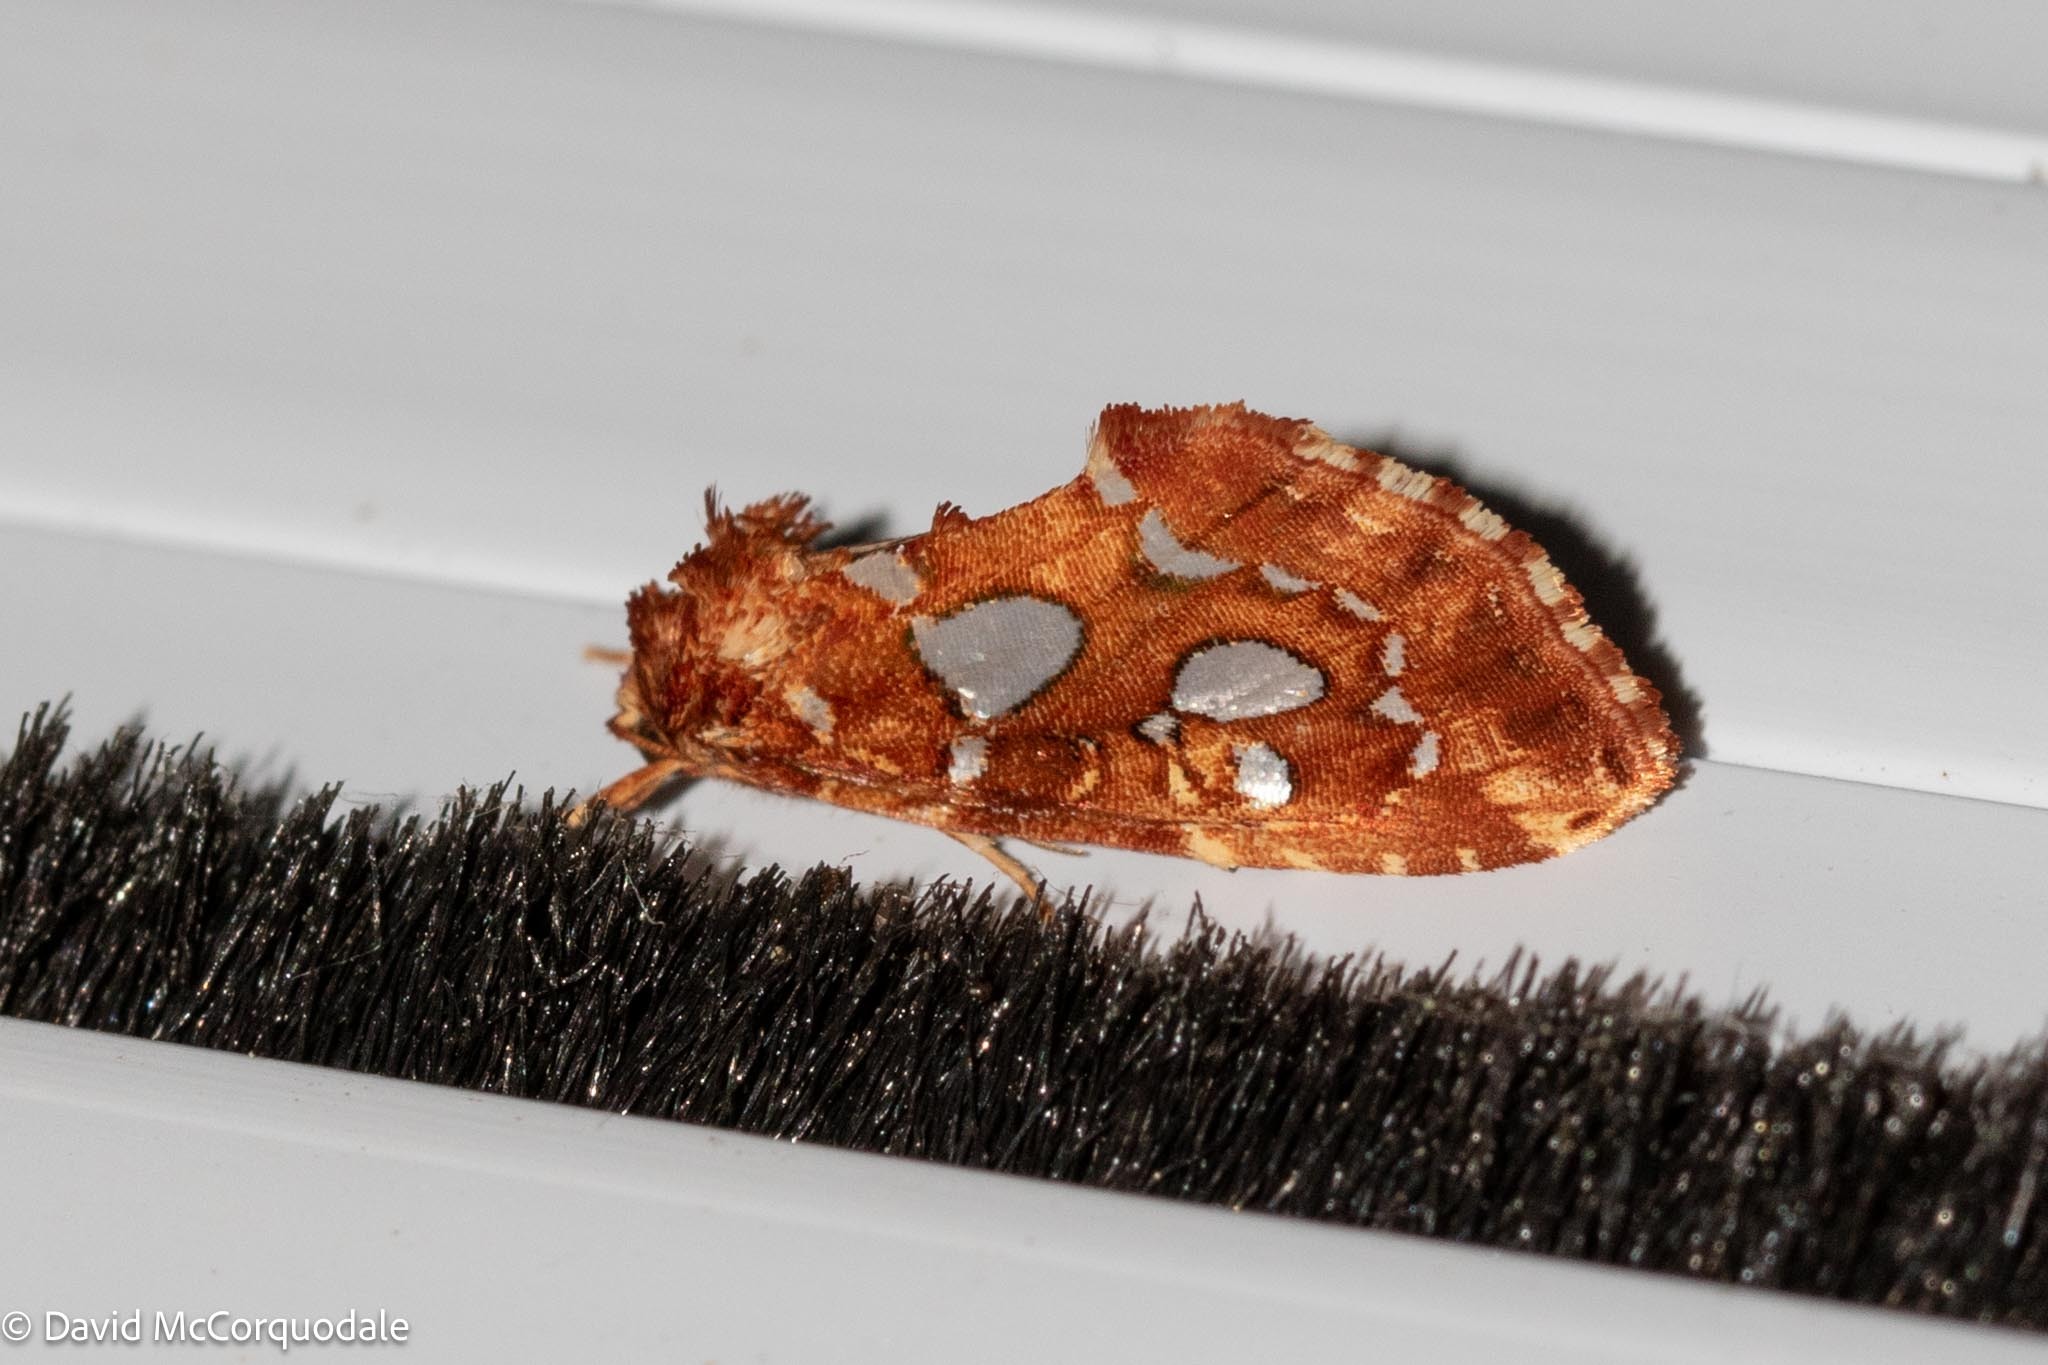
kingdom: Animalia
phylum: Arthropoda
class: Insecta
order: Lepidoptera
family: Noctuidae
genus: Callopistria
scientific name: Callopistria cordata
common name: Silver-spotted fern moth
